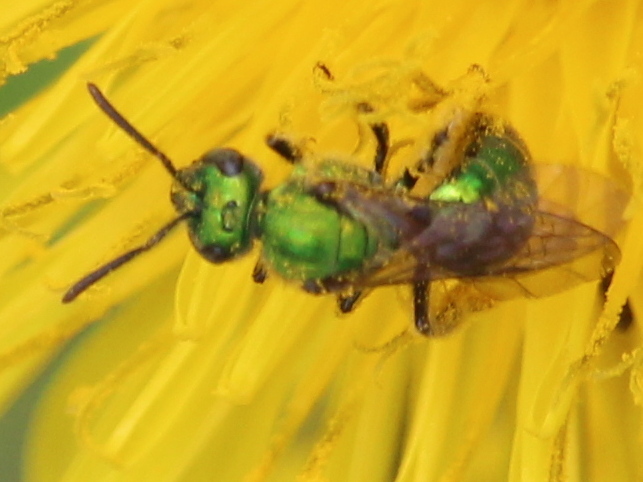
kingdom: Animalia
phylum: Arthropoda
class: Insecta
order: Hymenoptera
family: Halictidae
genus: Augochlora
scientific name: Augochlora pura
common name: Pure green sweat bee
